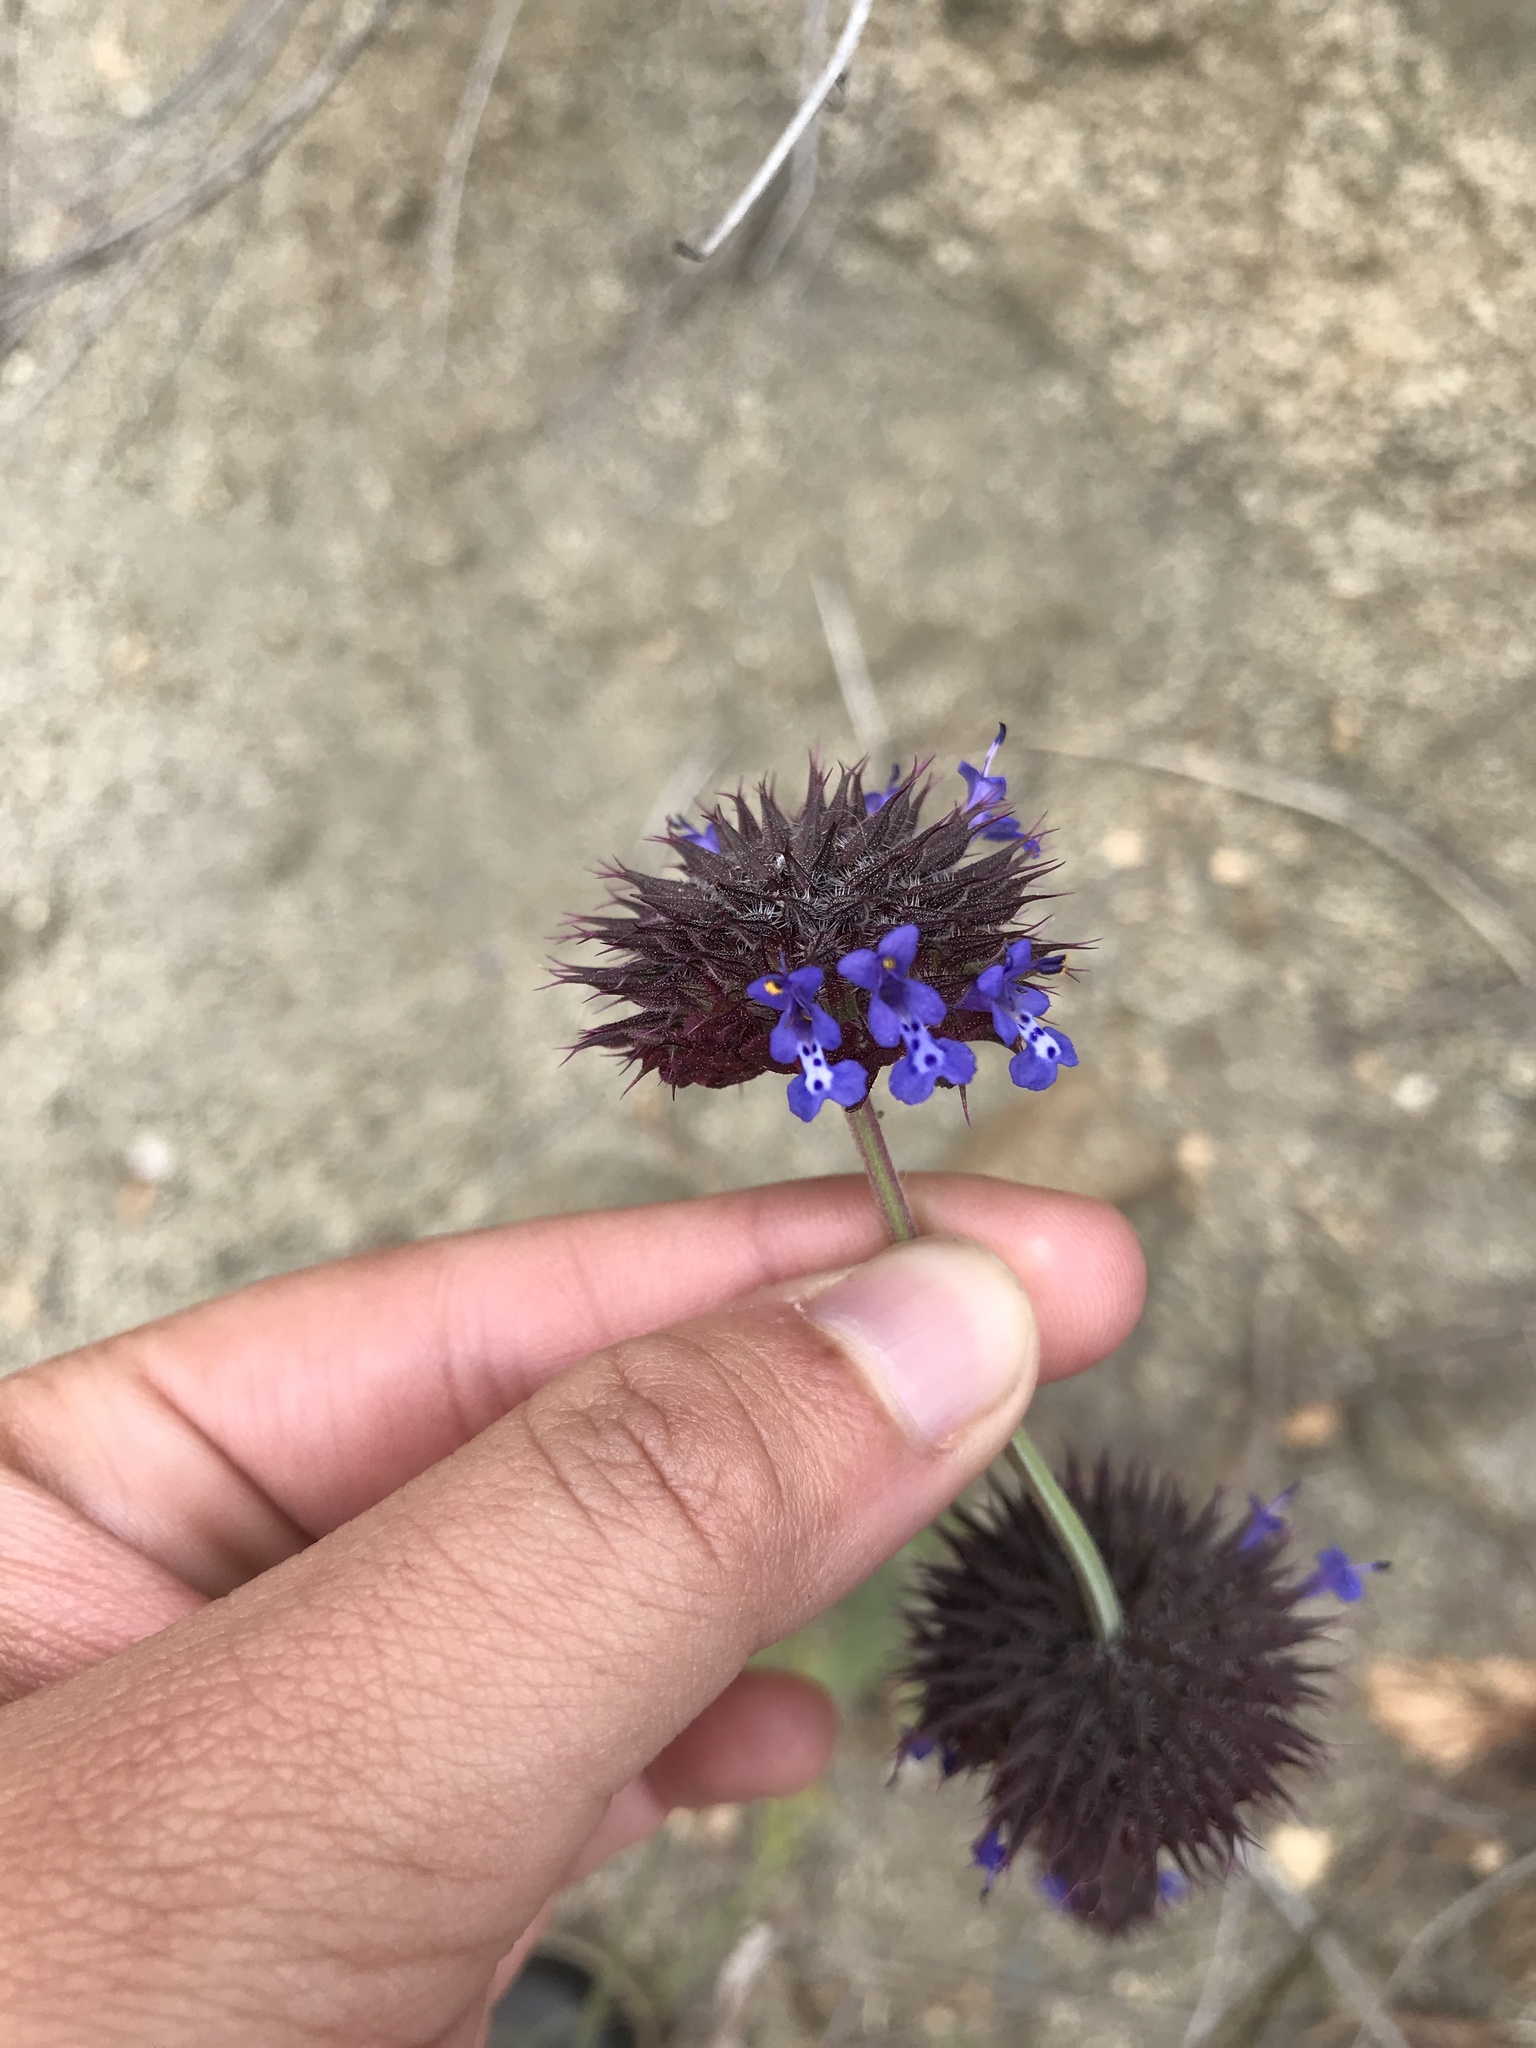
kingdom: Plantae
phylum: Tracheophyta
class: Magnoliopsida
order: Lamiales
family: Lamiaceae
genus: Salvia
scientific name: Salvia columbariae
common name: Chia
